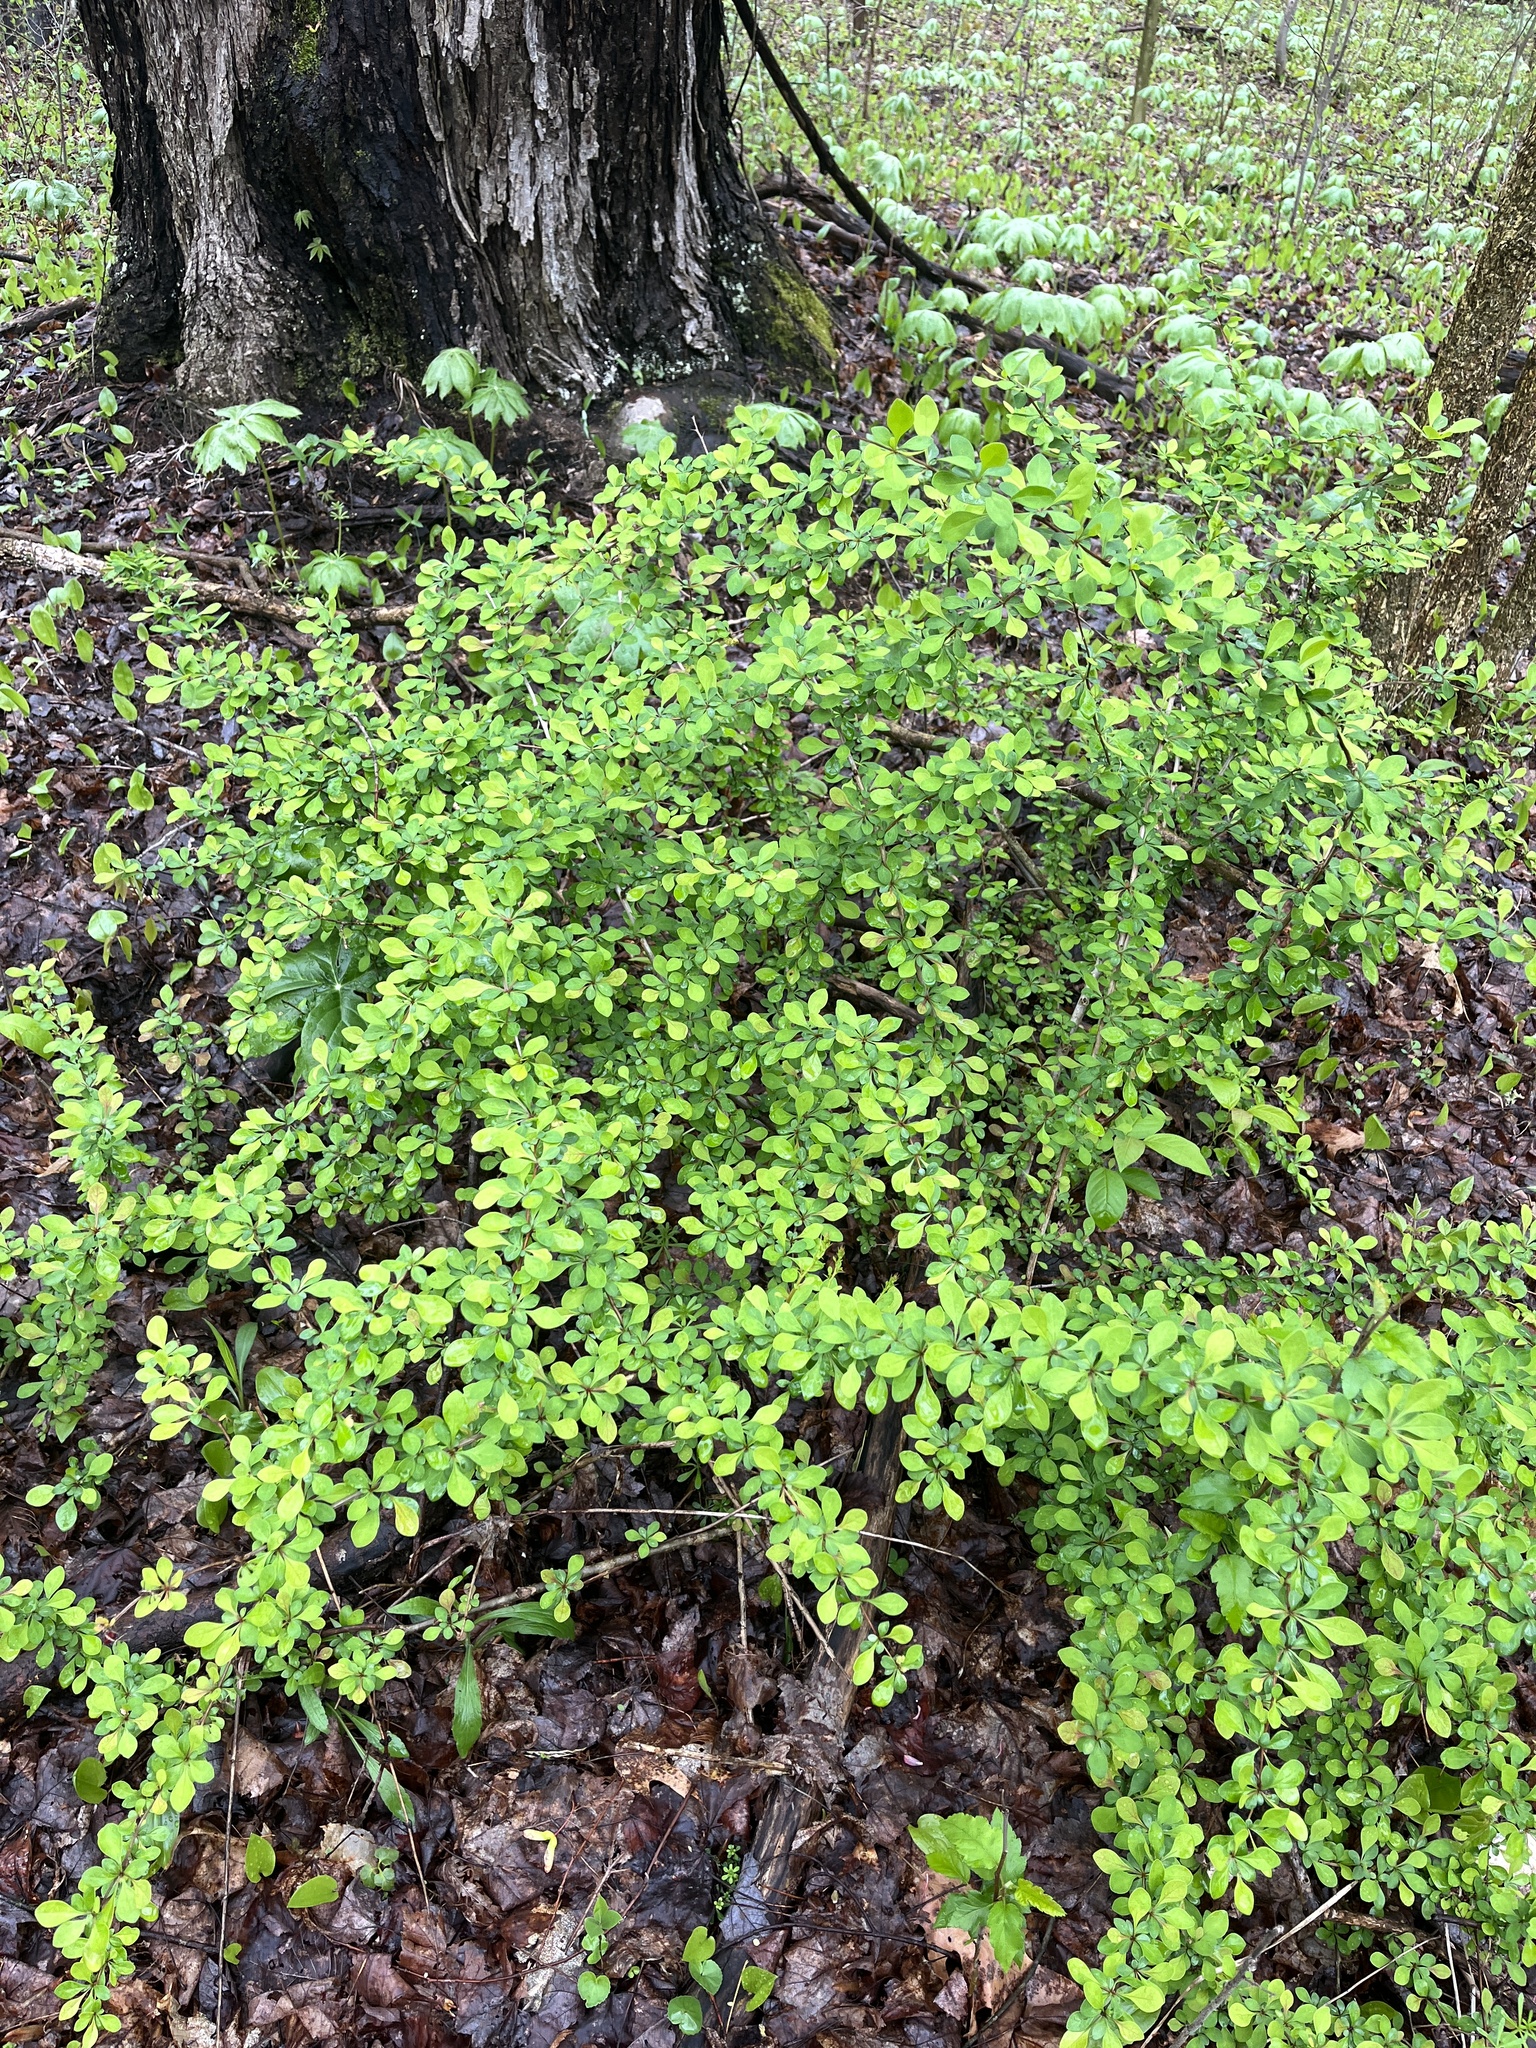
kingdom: Plantae
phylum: Tracheophyta
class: Magnoliopsida
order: Ranunculales
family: Berberidaceae
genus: Berberis
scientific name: Berberis thunbergii
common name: Japanese barberry
